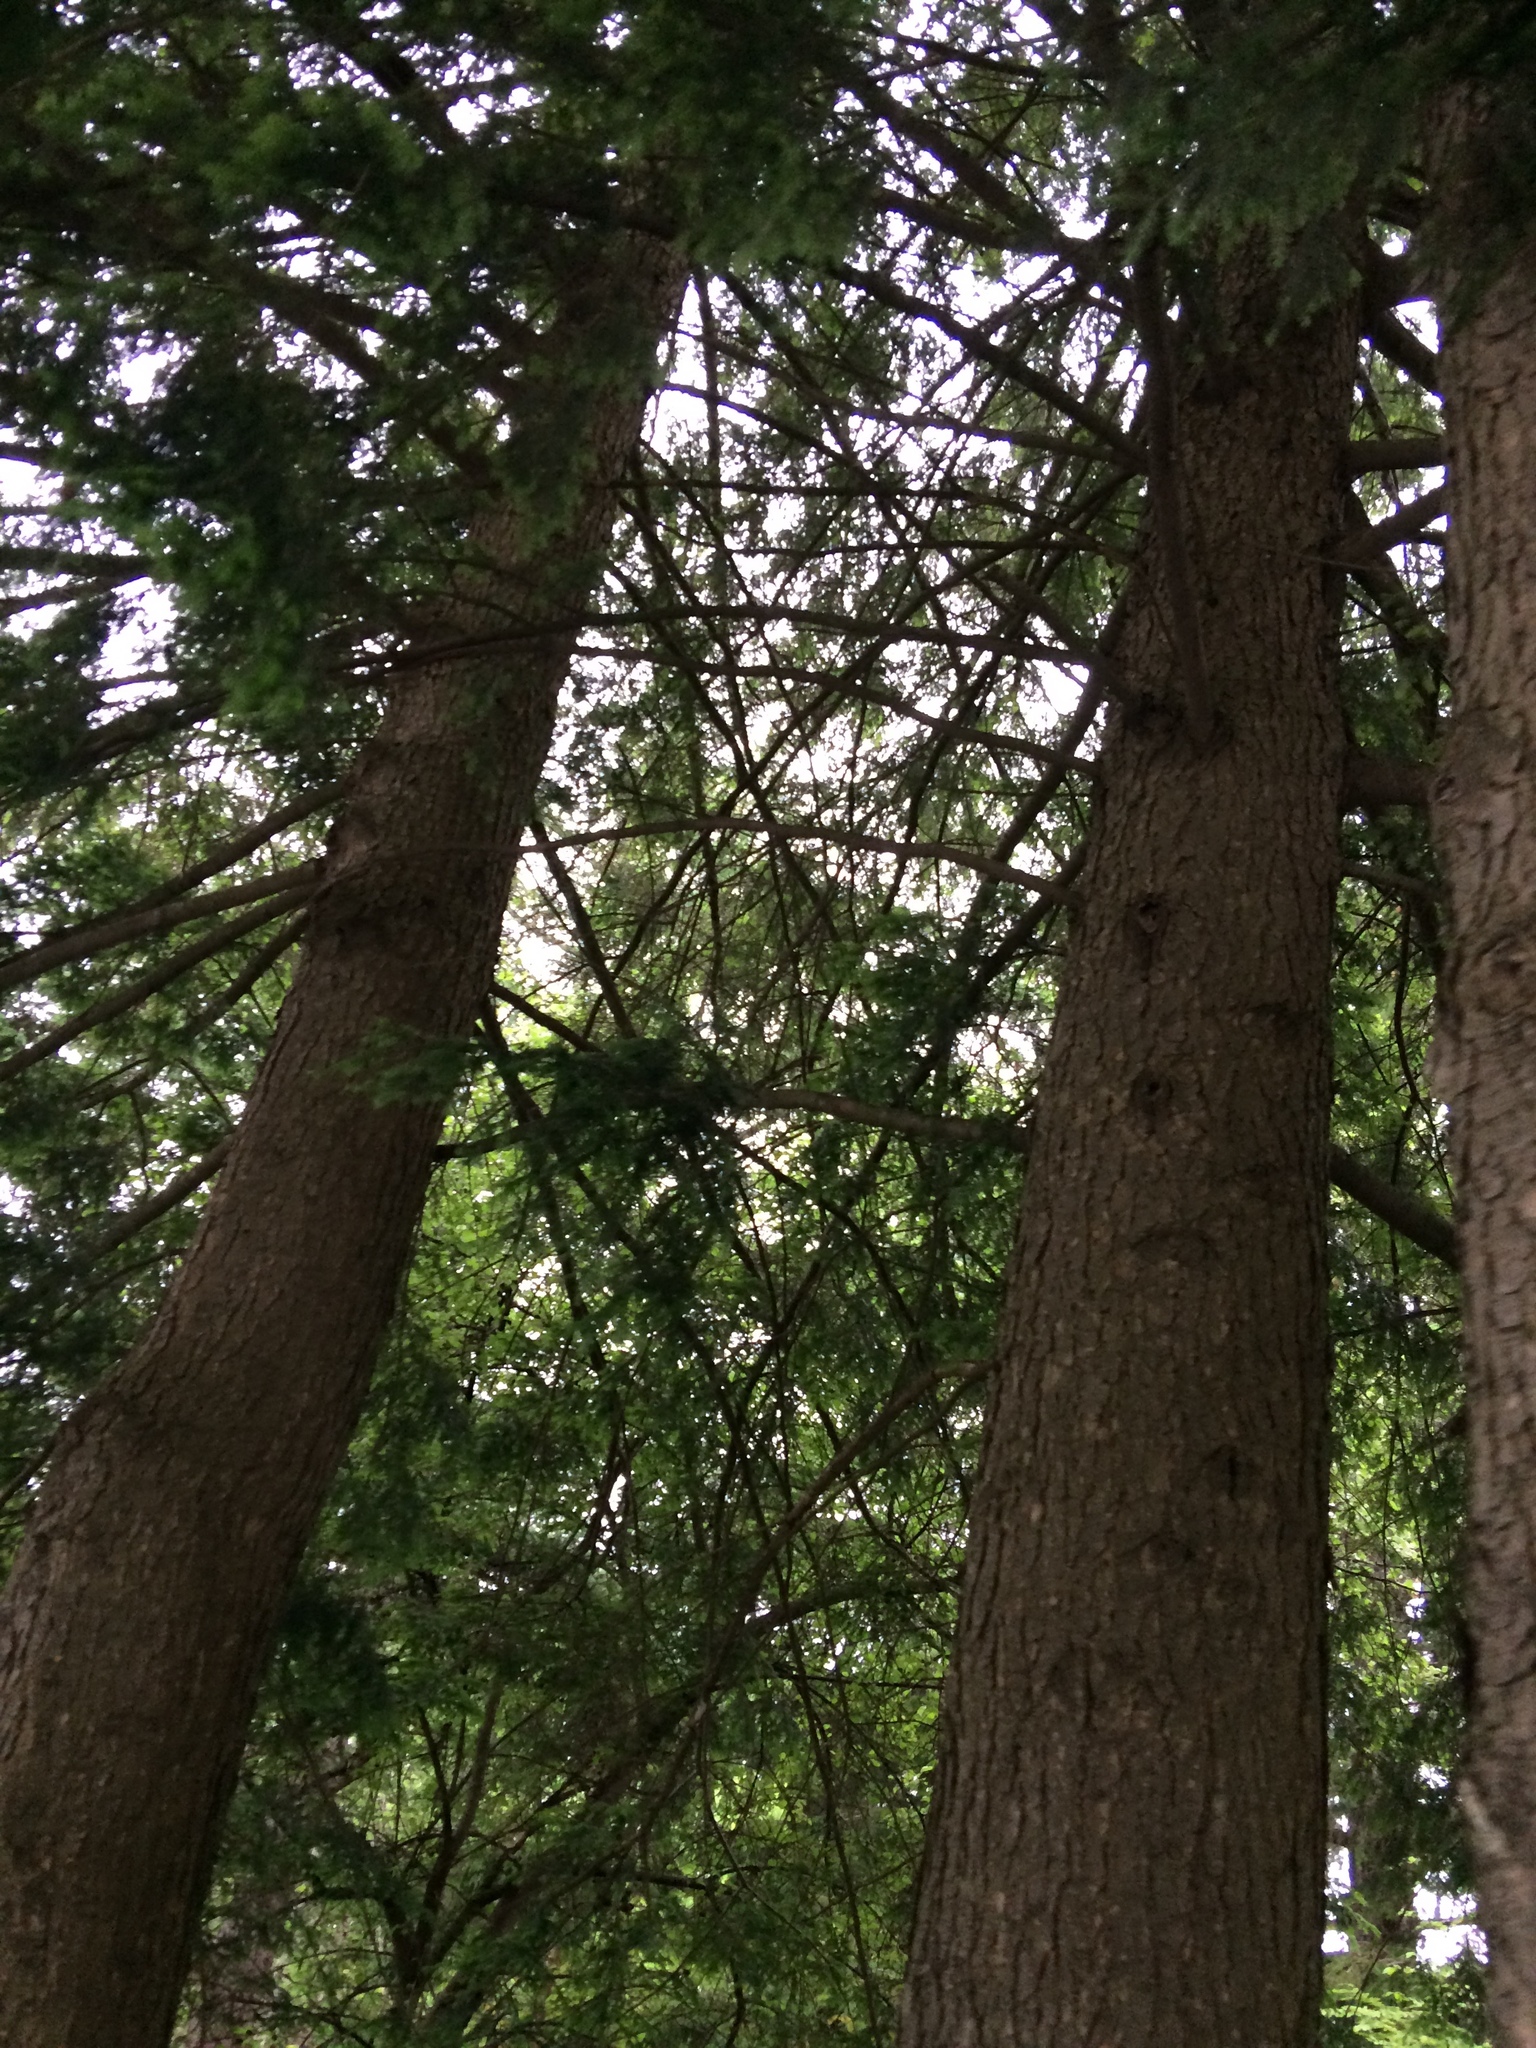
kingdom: Plantae
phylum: Tracheophyta
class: Pinopsida
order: Pinales
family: Pinaceae
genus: Tsuga
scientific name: Tsuga canadensis
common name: Eastern hemlock
